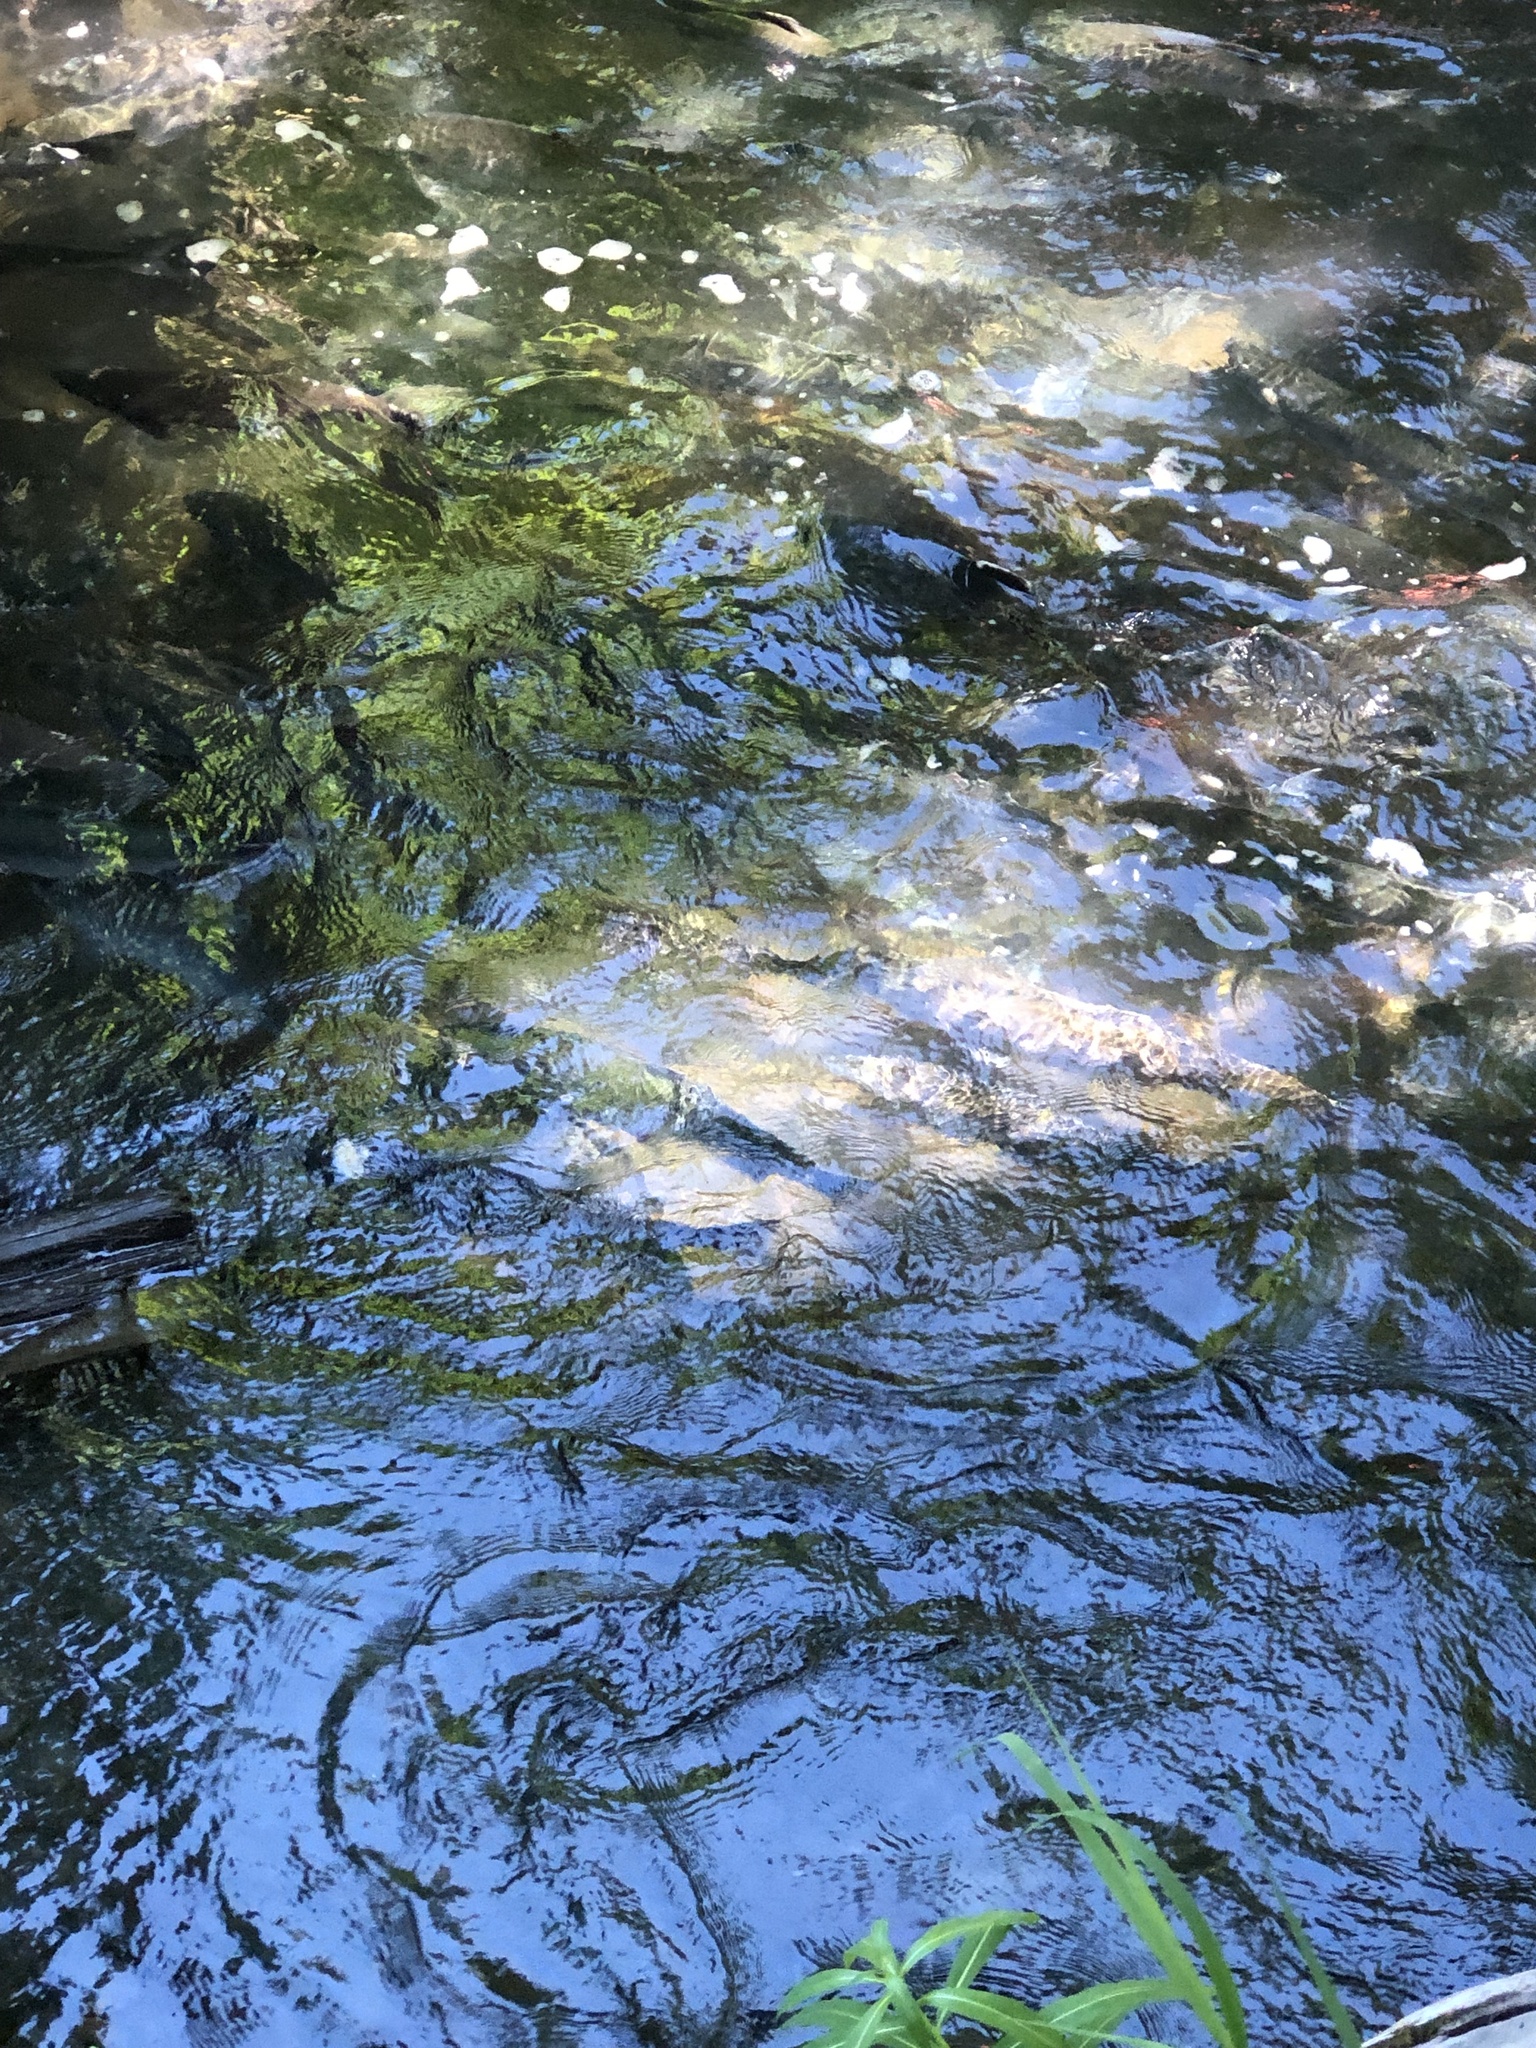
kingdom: Animalia
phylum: Chordata
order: Salmoniformes
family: Salmonidae
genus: Oncorhynchus
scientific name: Oncorhynchus nerka
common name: Sockeye salmon
